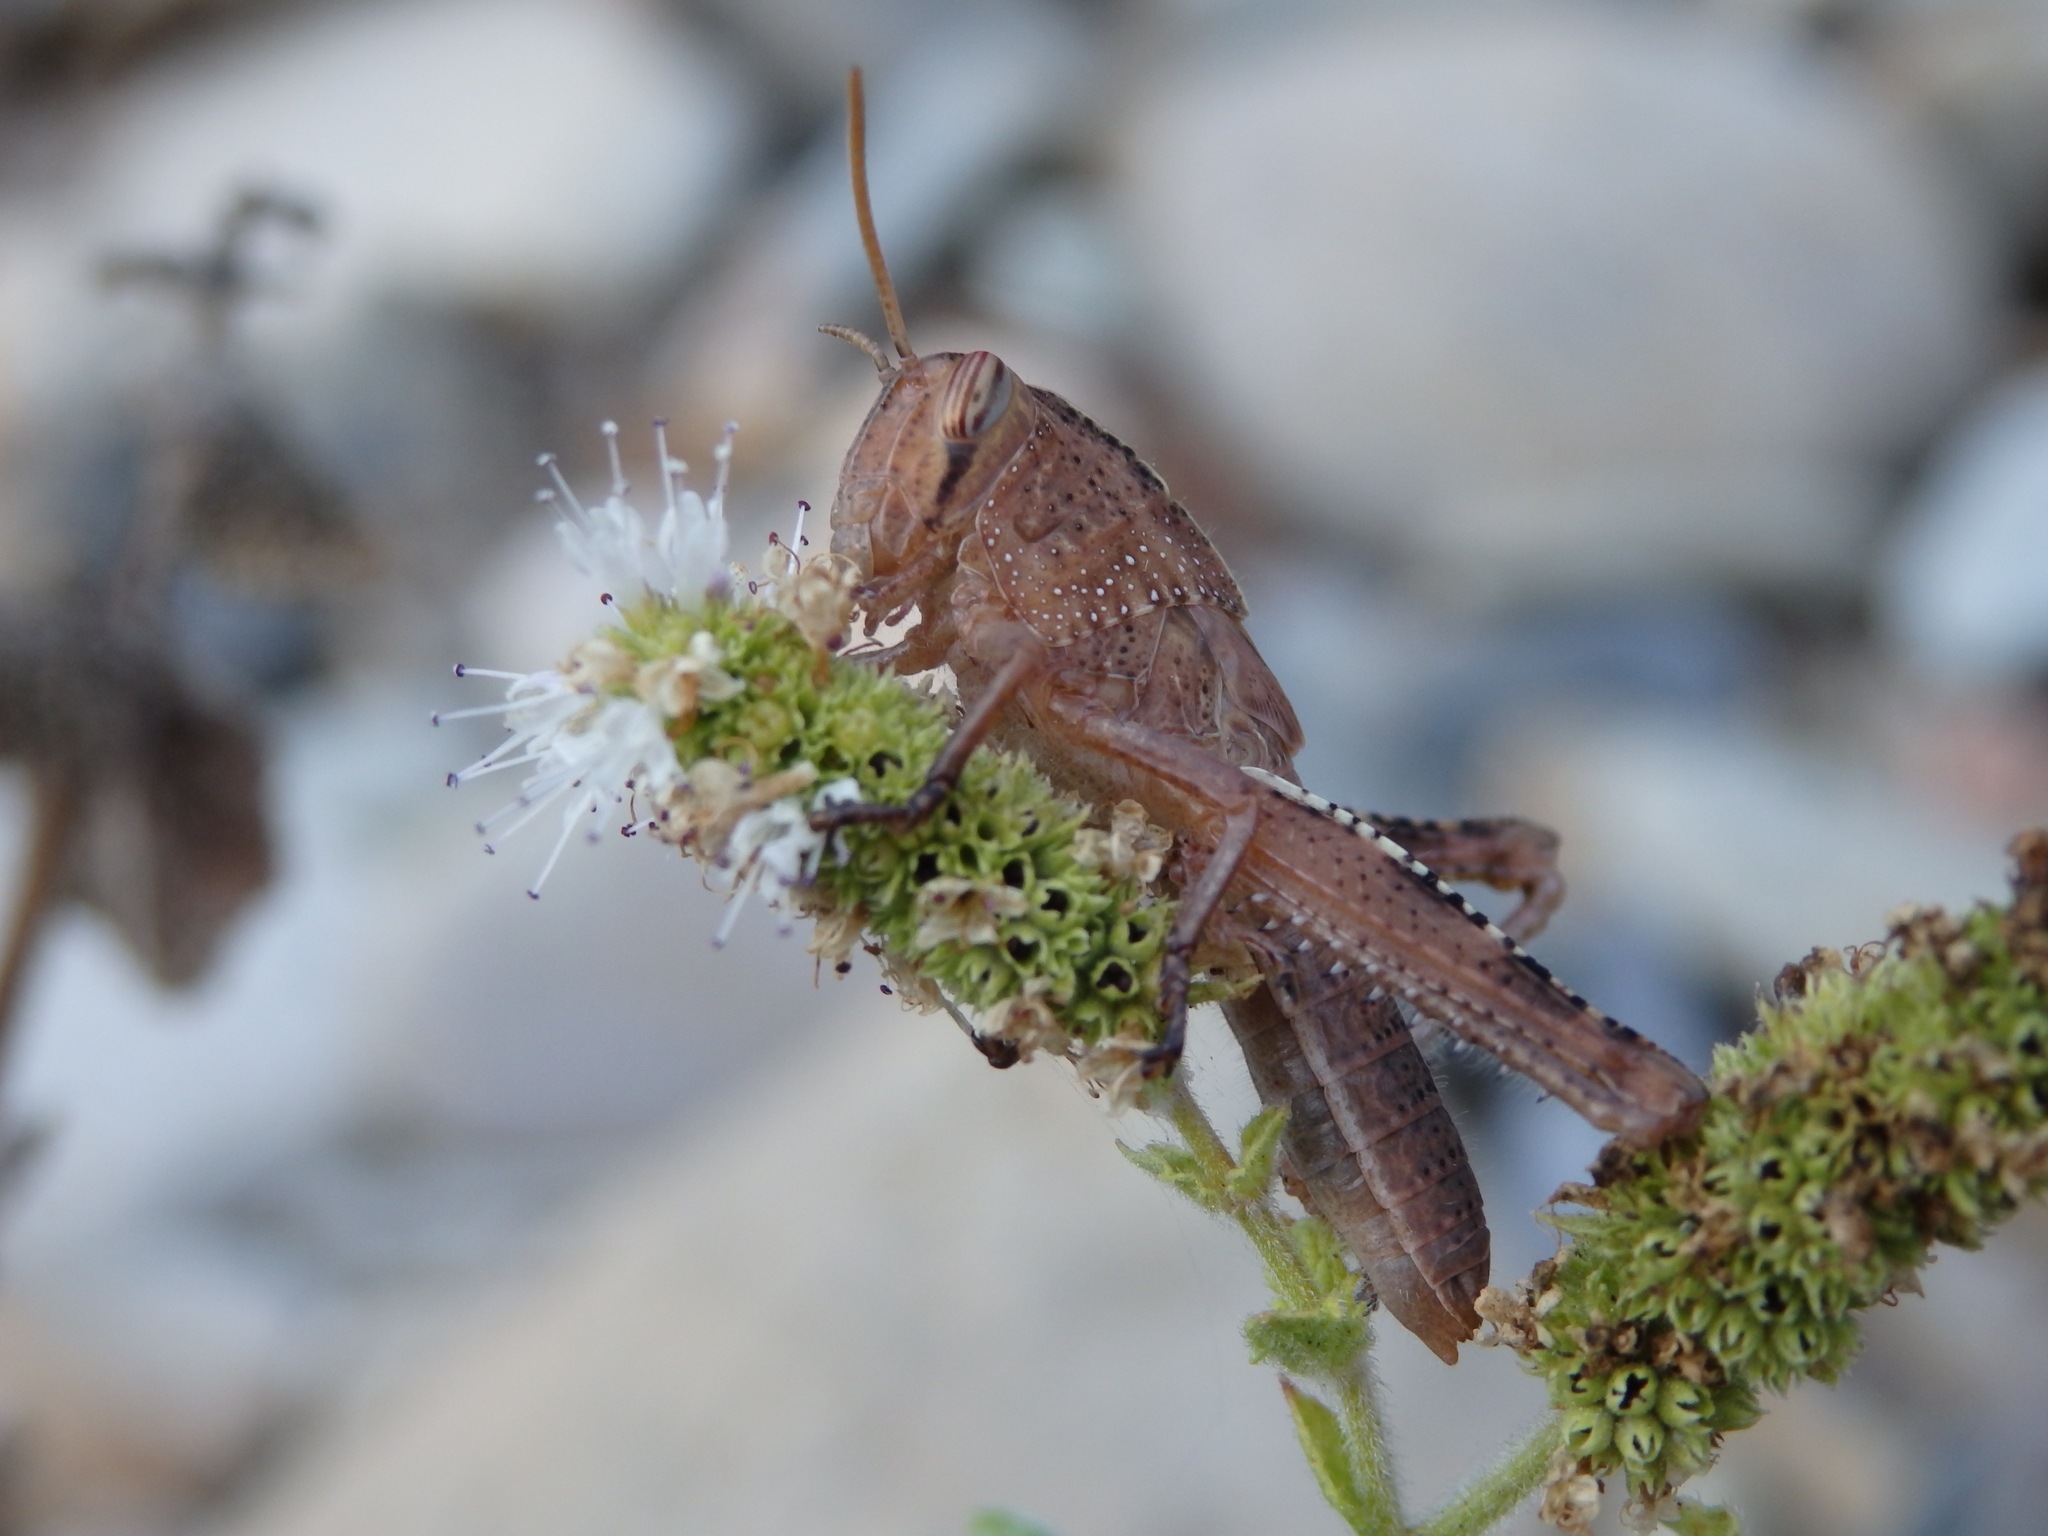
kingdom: Animalia
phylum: Arthropoda
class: Insecta
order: Orthoptera
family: Acrididae
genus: Anacridium
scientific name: Anacridium aegyptium
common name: Egyptian grasshopper
